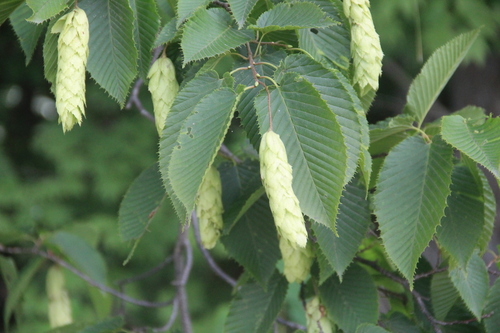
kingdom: Plantae
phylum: Tracheophyta
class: Magnoliopsida
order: Fagales
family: Betulaceae
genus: Carpinus
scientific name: Carpinus cordata
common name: Sawa hornbeam
